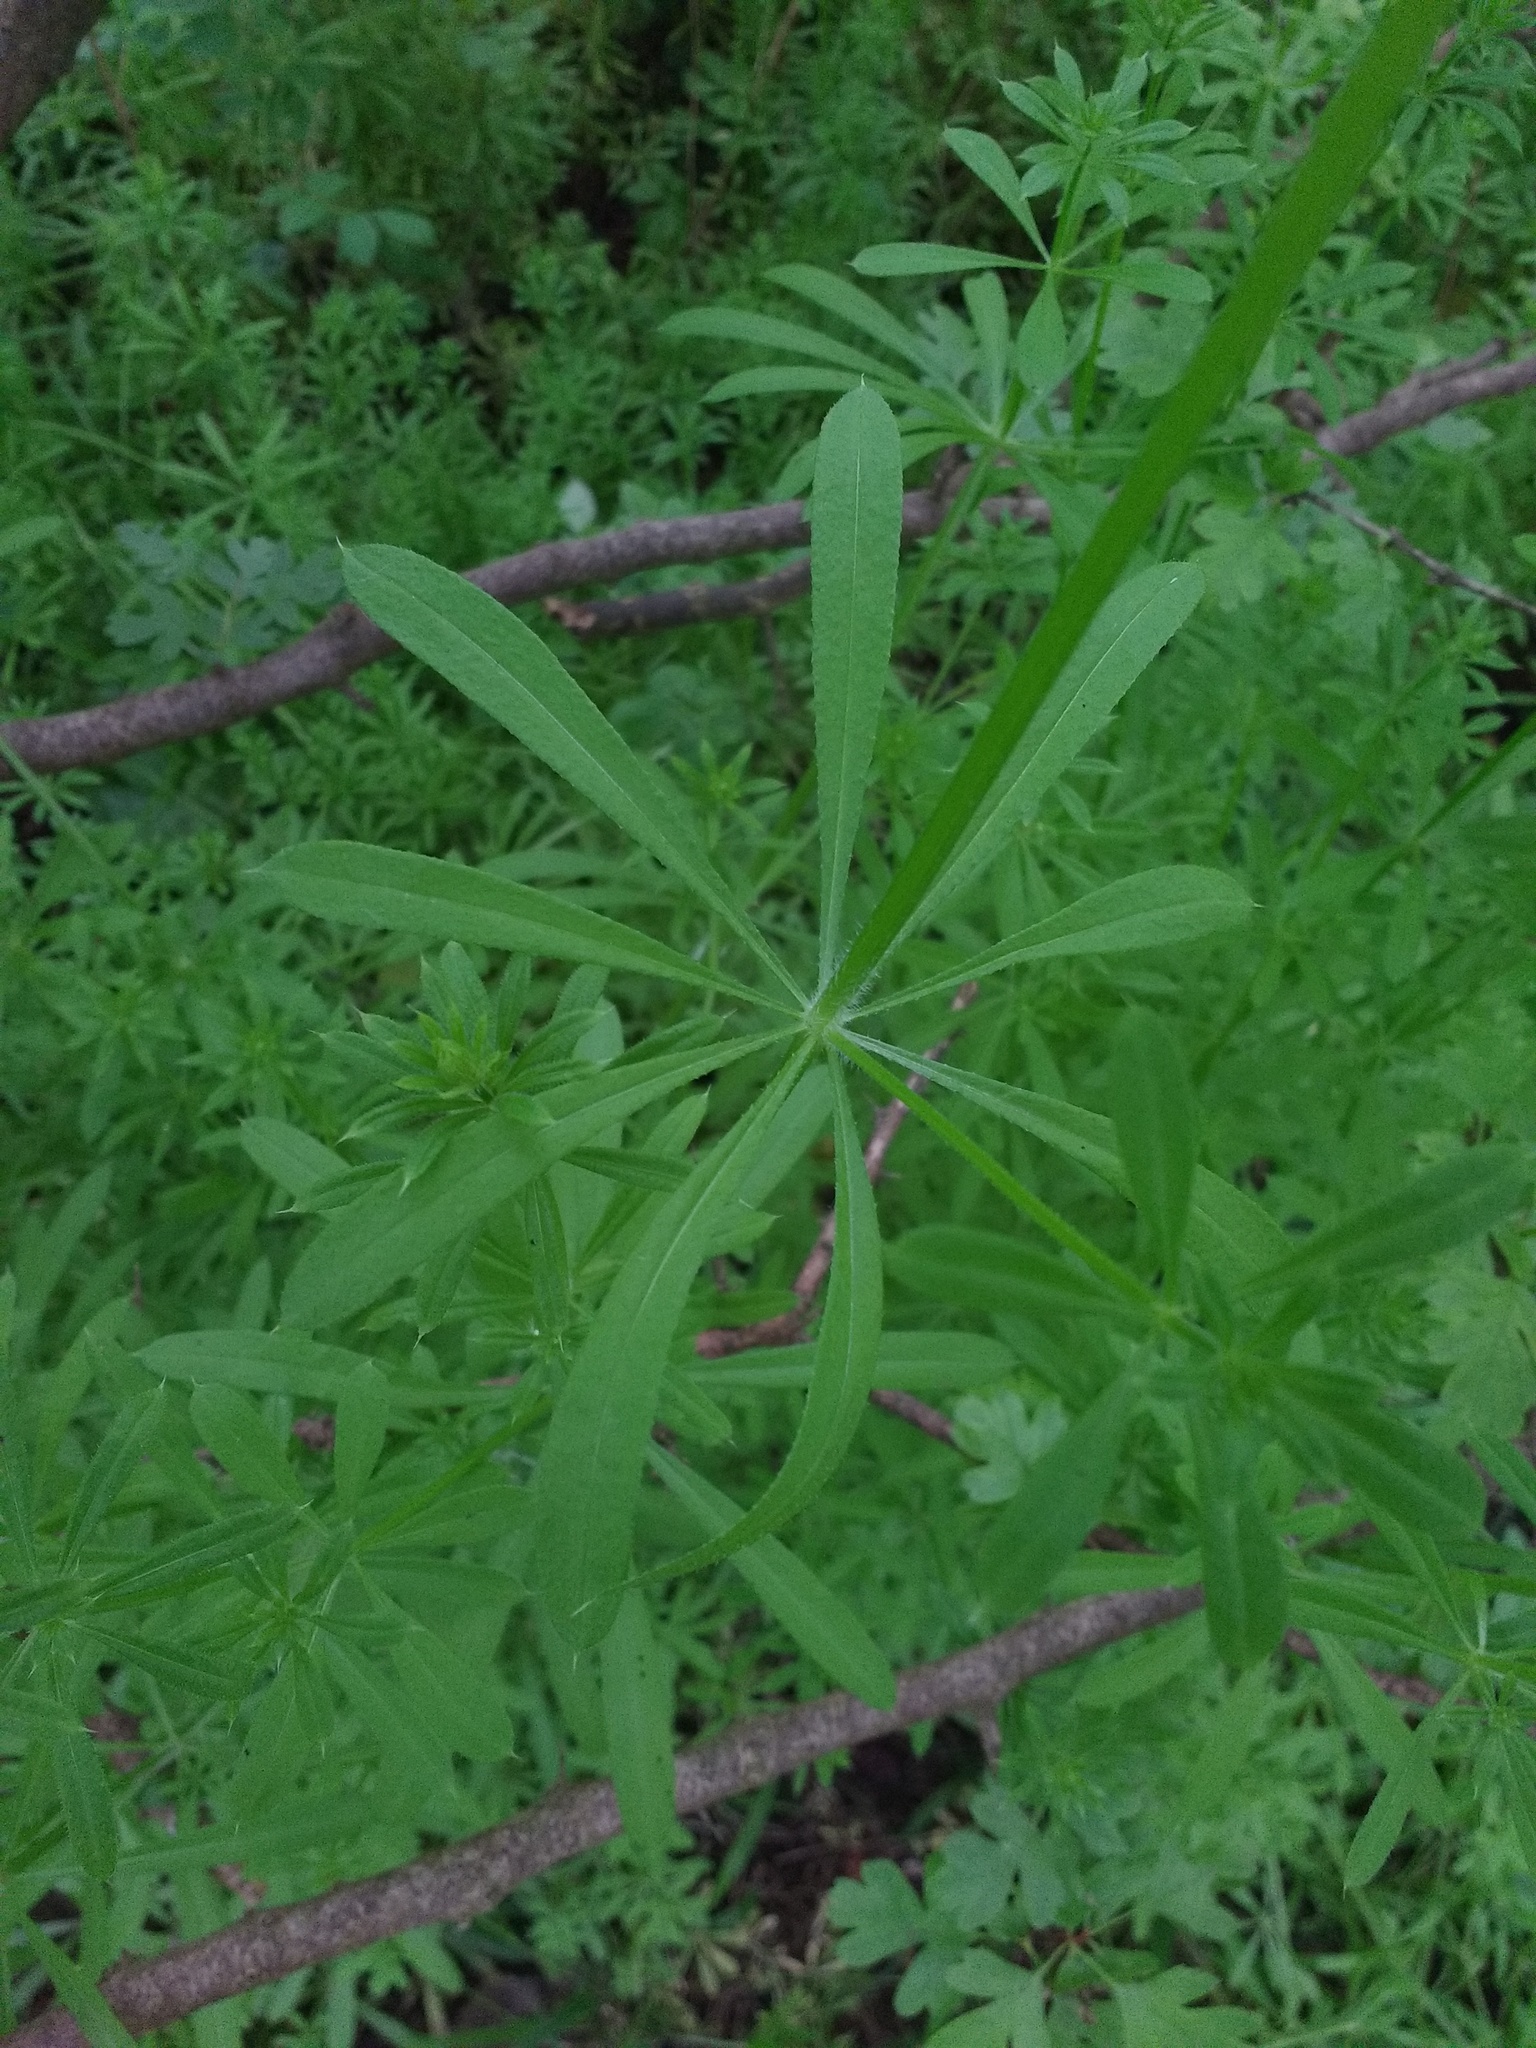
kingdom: Plantae
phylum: Tracheophyta
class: Magnoliopsida
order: Gentianales
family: Rubiaceae
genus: Galium
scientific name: Galium aparine
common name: Cleavers
